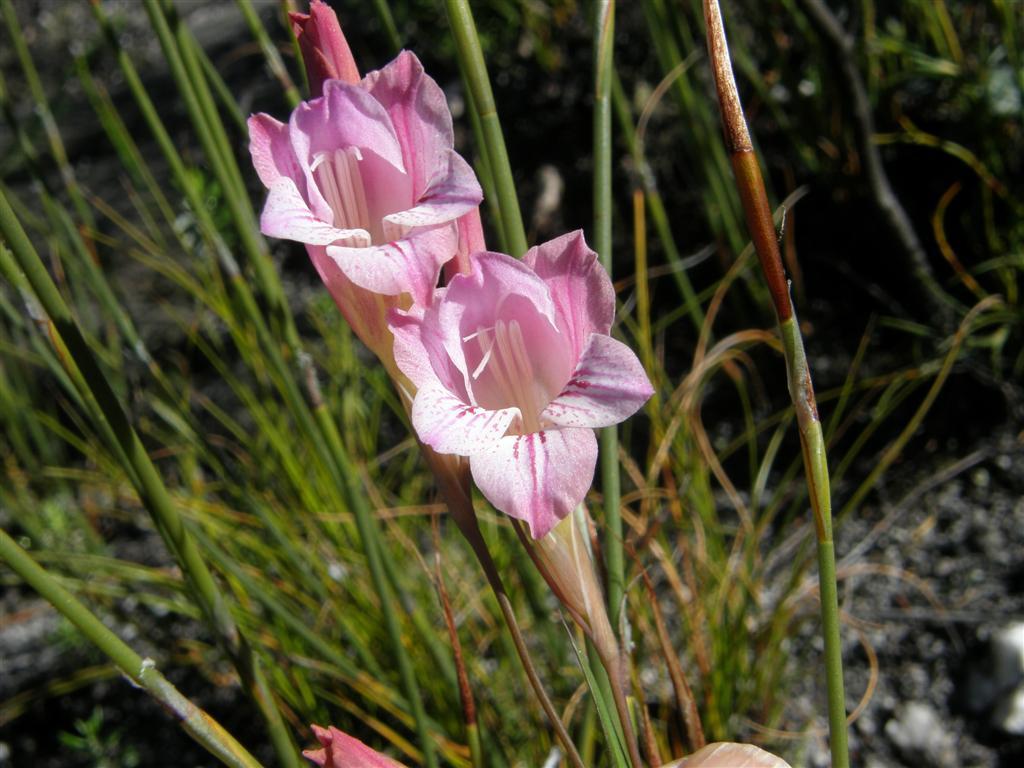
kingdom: Plantae
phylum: Tracheophyta
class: Liliopsida
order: Asparagales
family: Iridaceae
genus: Gladiolus
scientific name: Gladiolus hirsutus
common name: Small pink afrikaner
